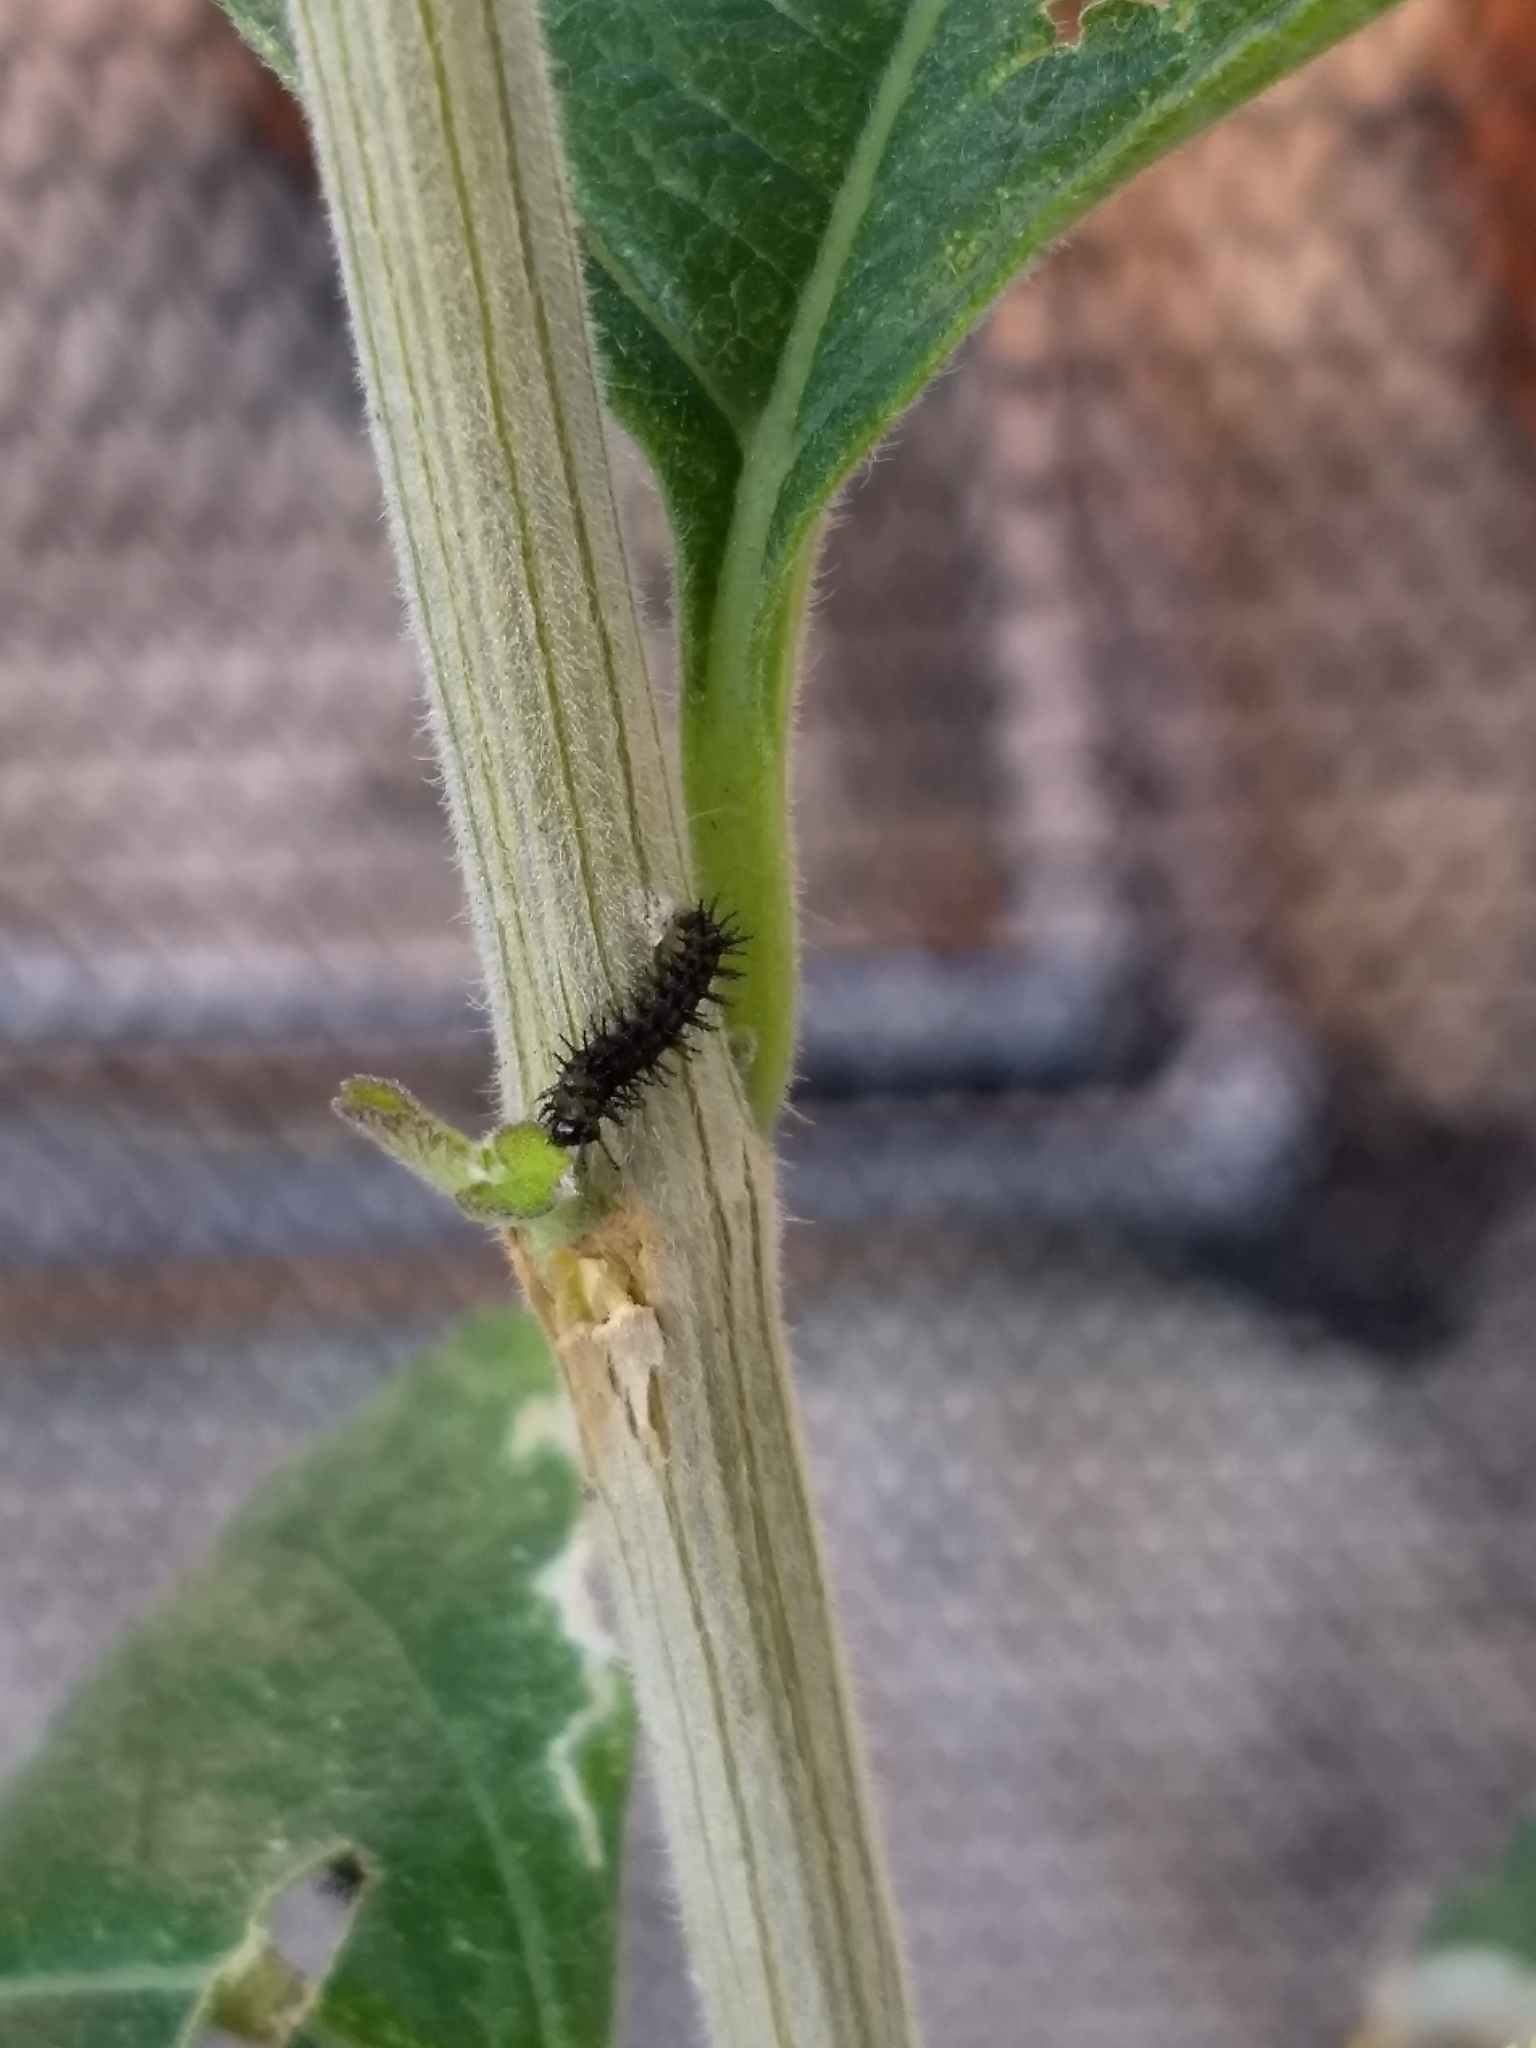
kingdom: Animalia
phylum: Arthropoda
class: Insecta
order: Lepidoptera
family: Nymphalidae
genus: Anartia
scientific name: Anartia jatrophae
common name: White peacock
